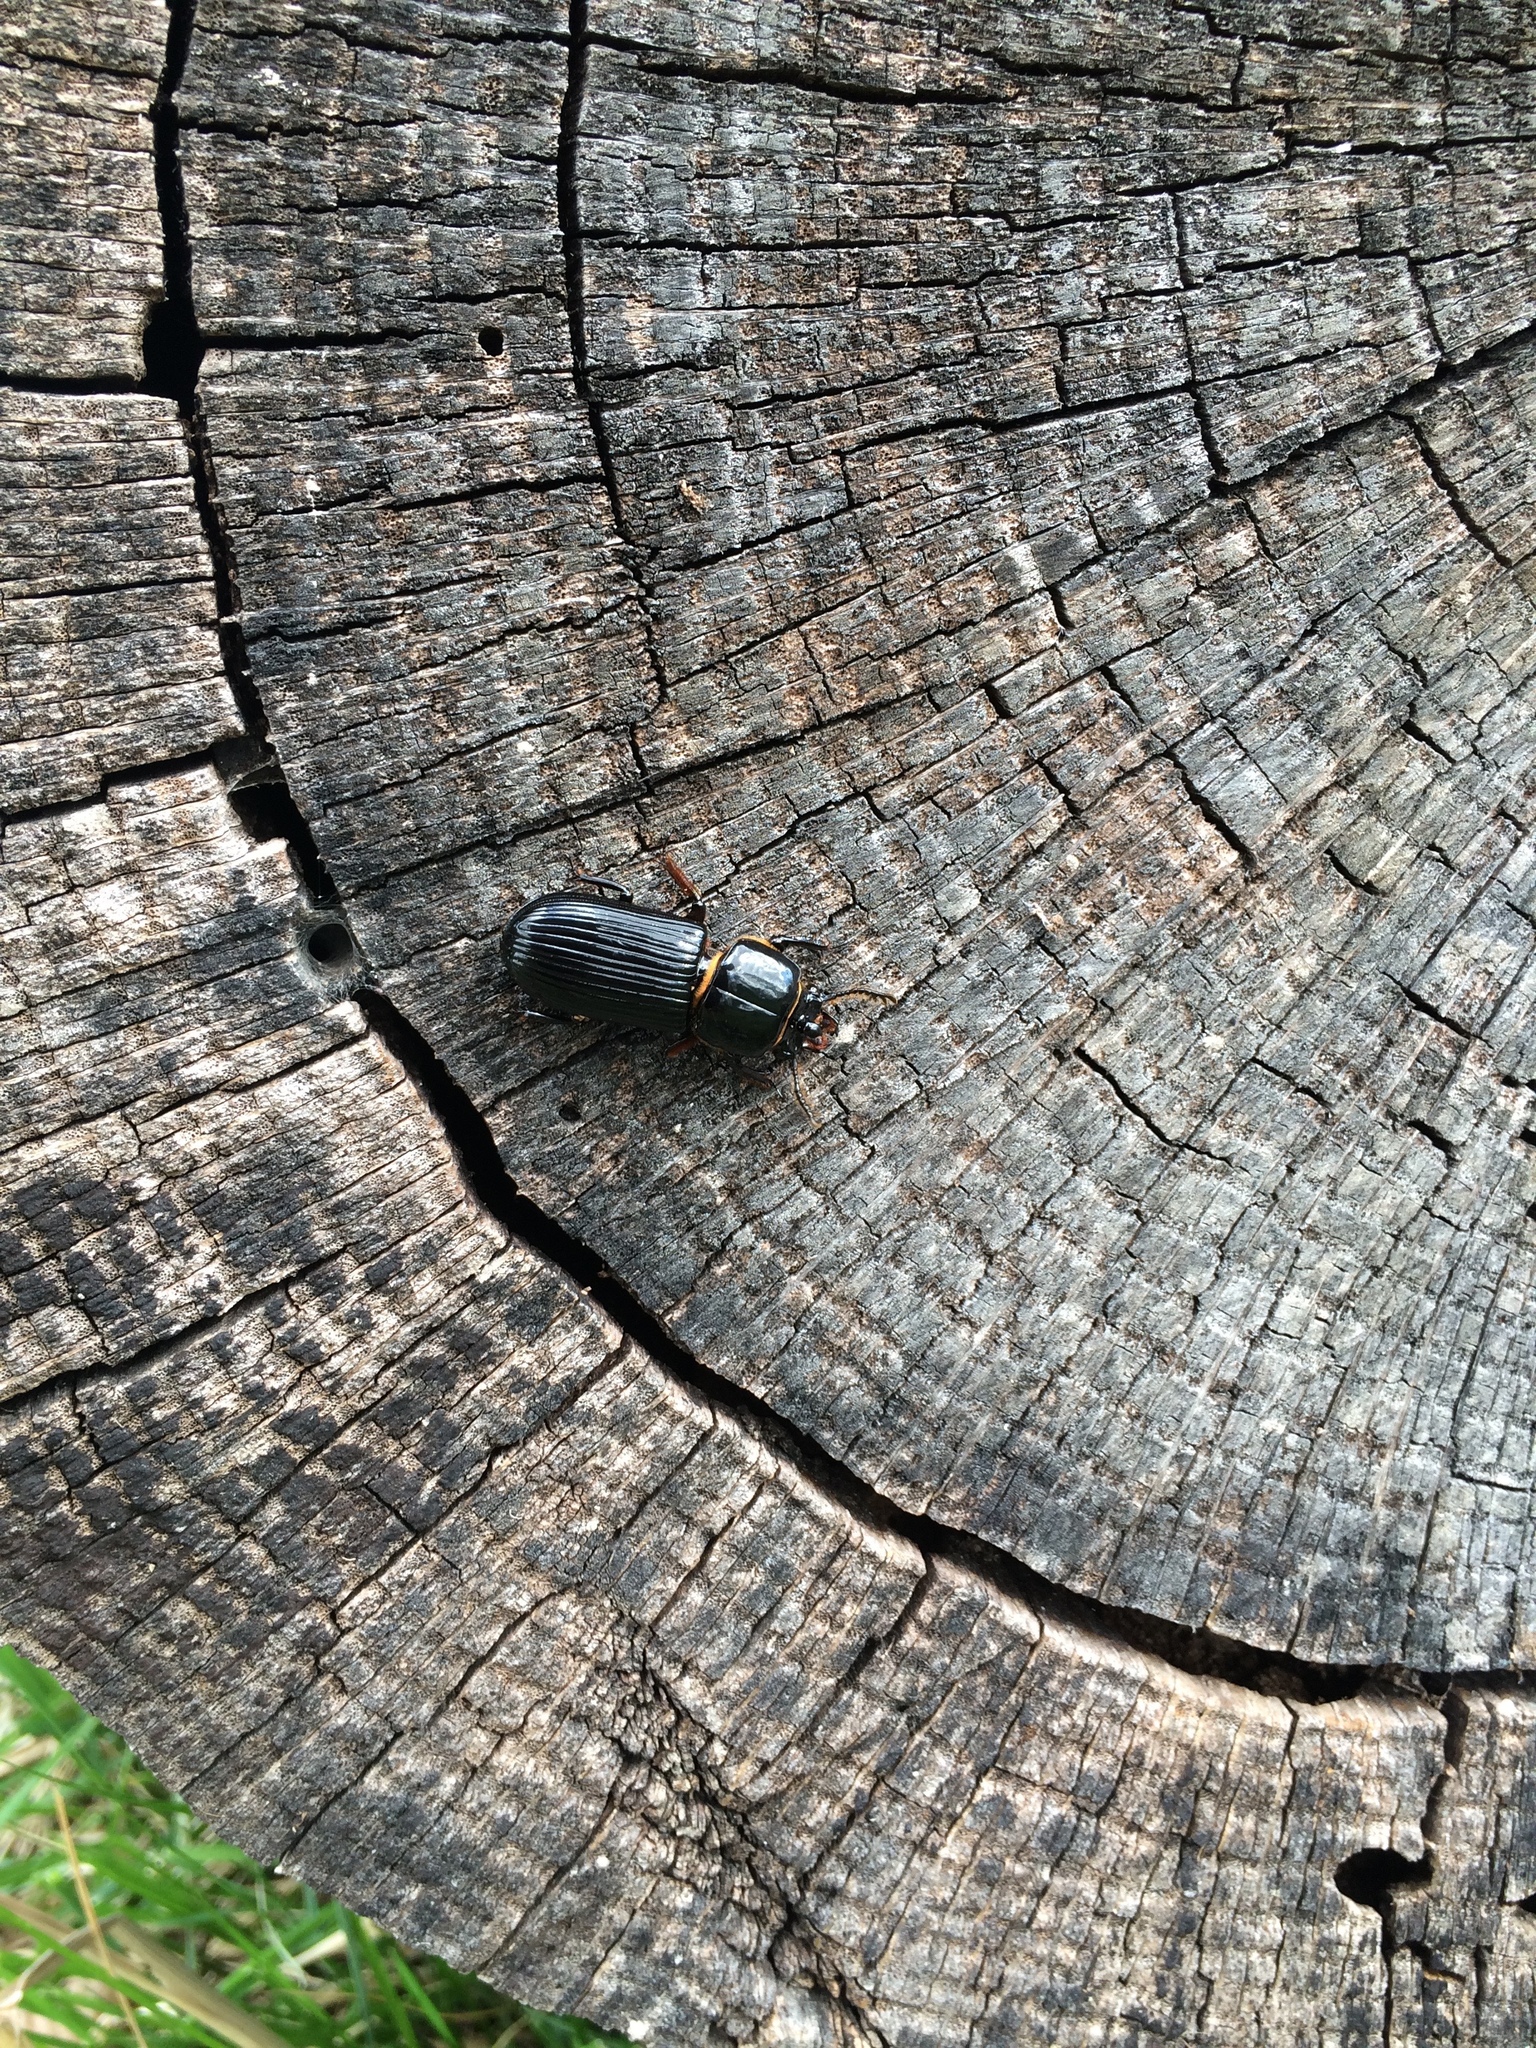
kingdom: Animalia
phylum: Arthropoda
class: Insecta
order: Coleoptera
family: Passalidae
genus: Odontotaenius
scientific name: Odontotaenius disjunctus
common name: Patent leather beetle
